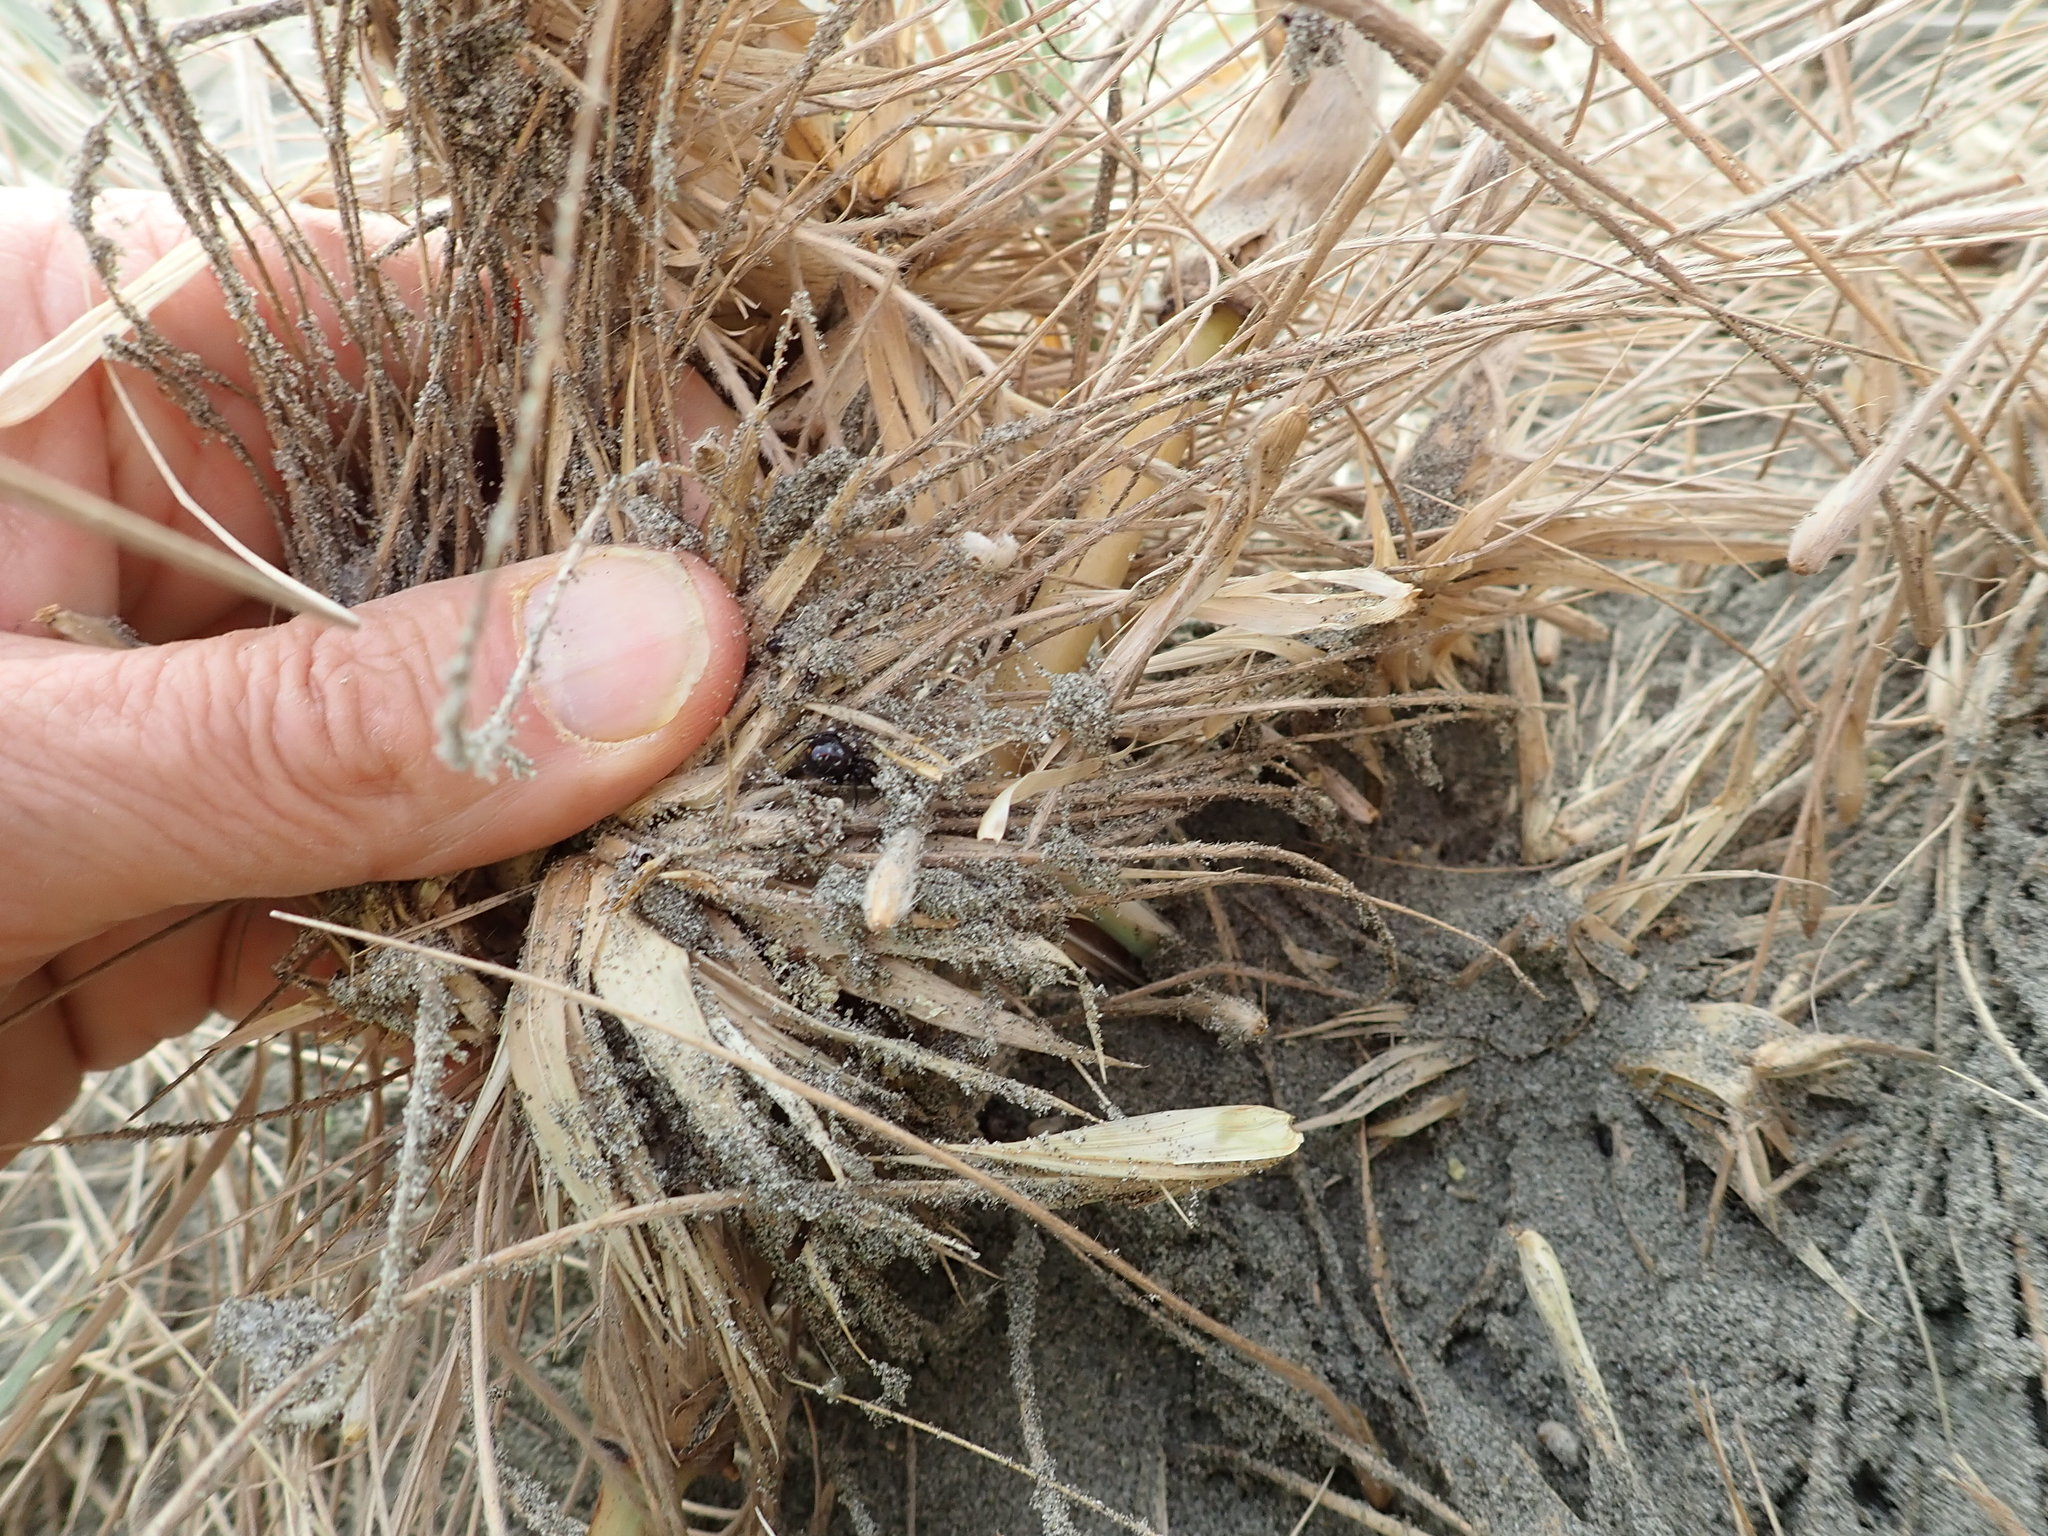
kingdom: Animalia
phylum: Arthropoda
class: Arachnida
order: Araneae
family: Theridiidae
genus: Steatoda
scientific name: Steatoda capensis
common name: Cobweb weaver
